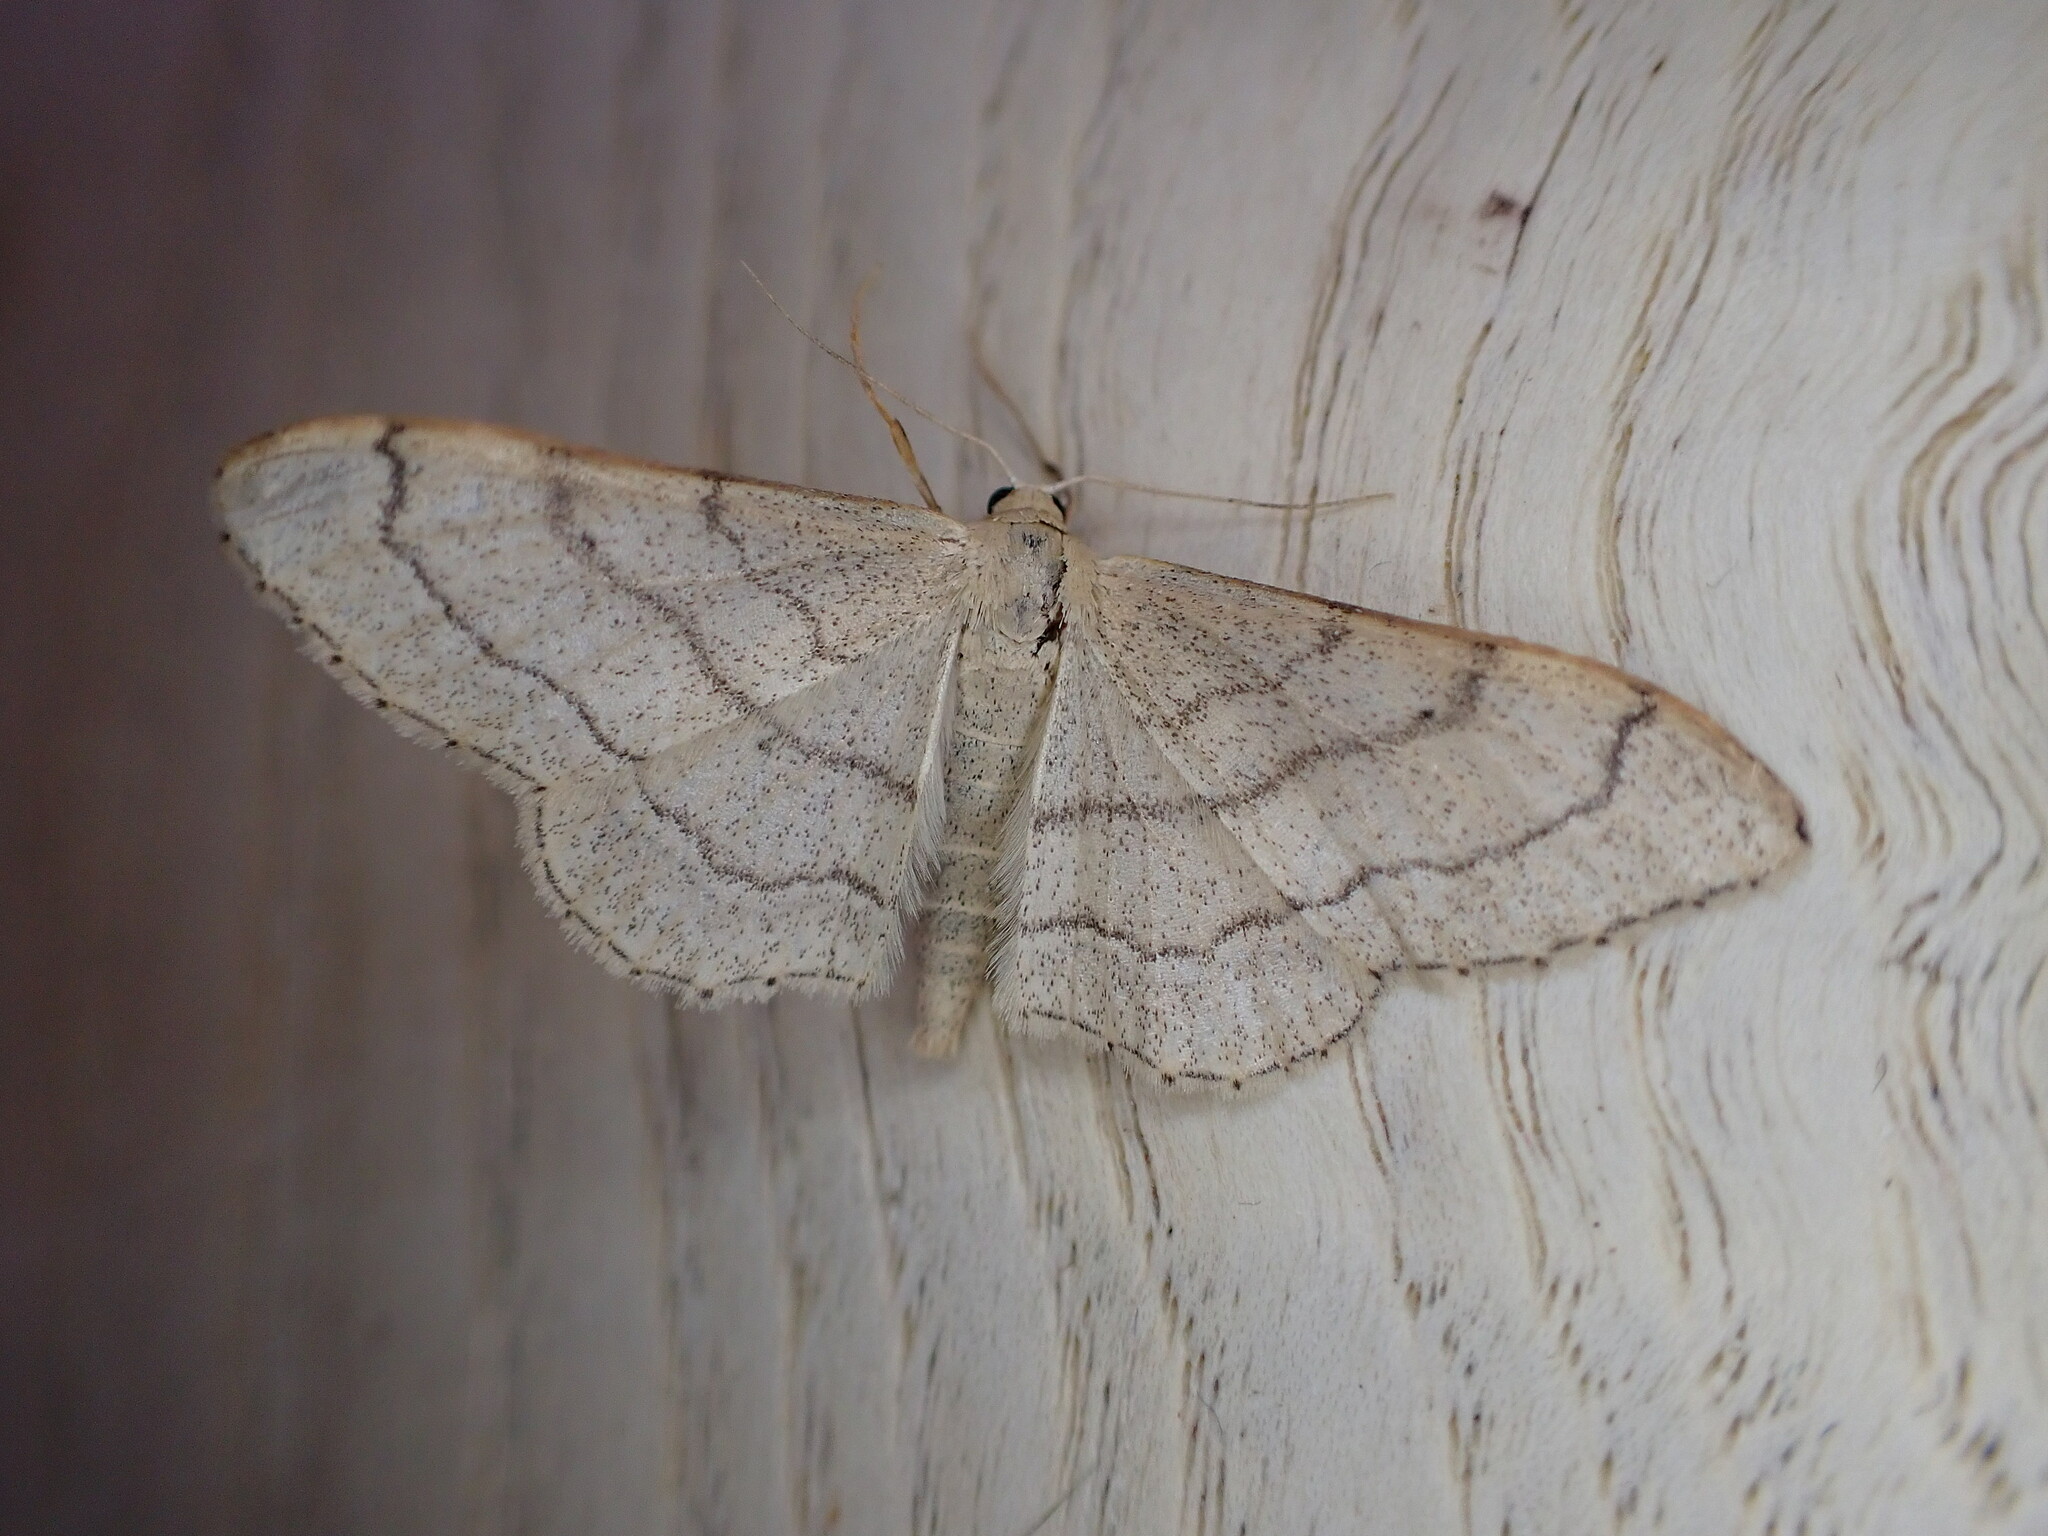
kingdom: Animalia
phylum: Arthropoda
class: Insecta
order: Lepidoptera
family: Geometridae
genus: Idaea
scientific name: Idaea aversata
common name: Riband wave
